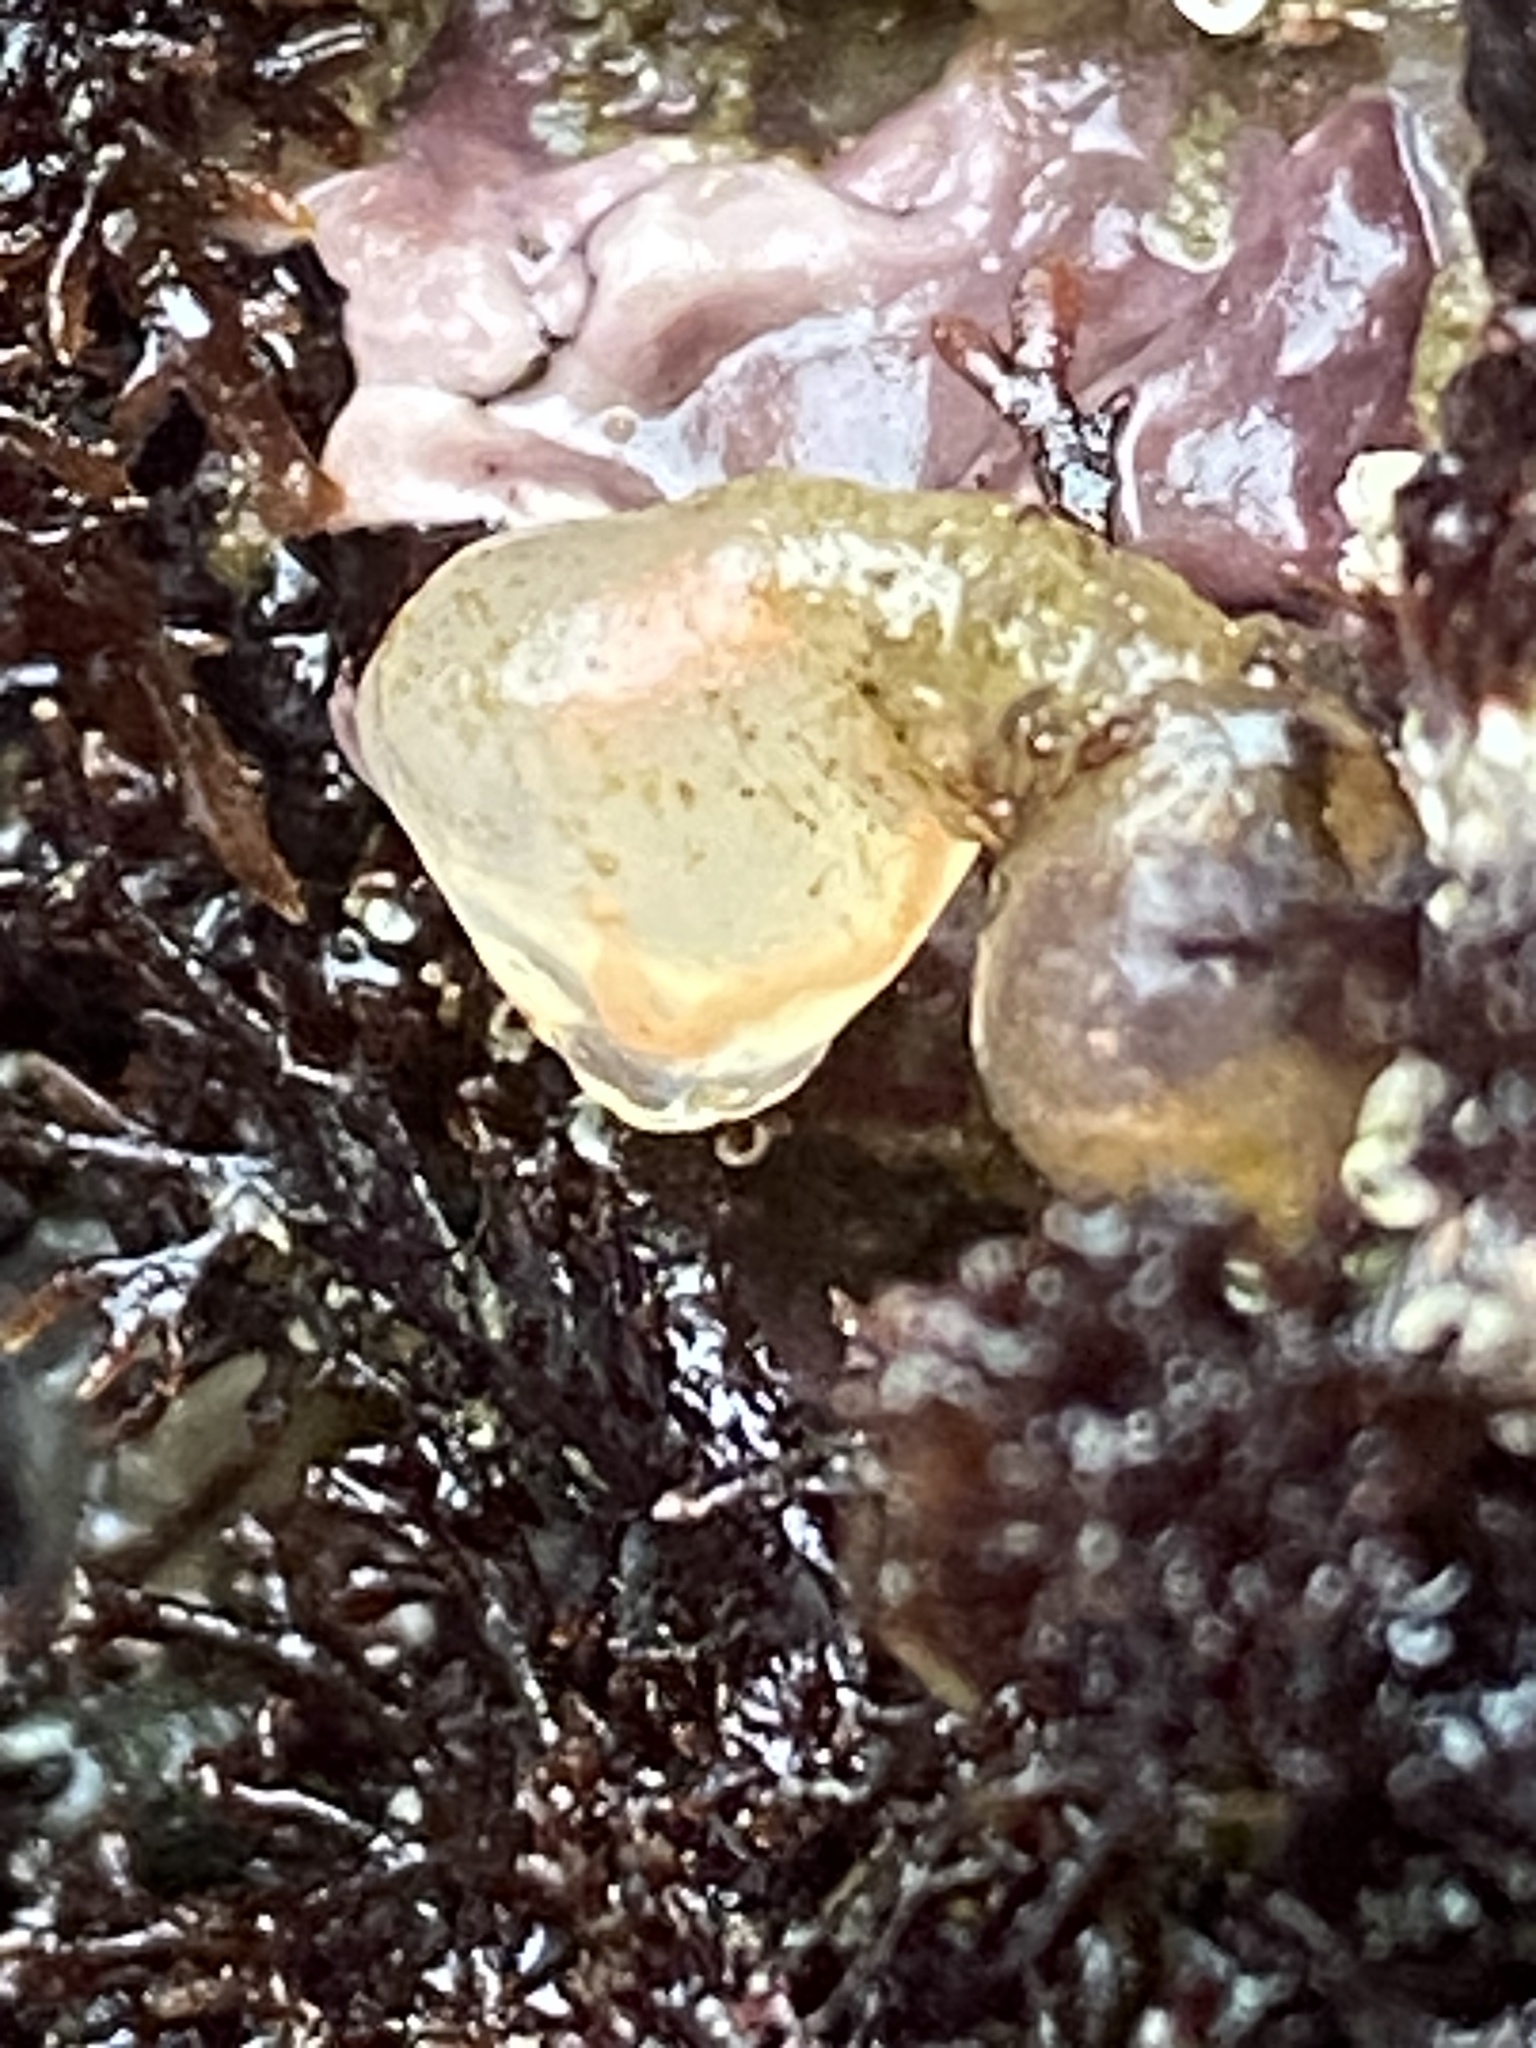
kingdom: Animalia
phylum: Chordata
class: Ascidiacea
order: Aplousobranchia
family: Clavelinidae
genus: Clavelina
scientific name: Clavelina huntsmani
